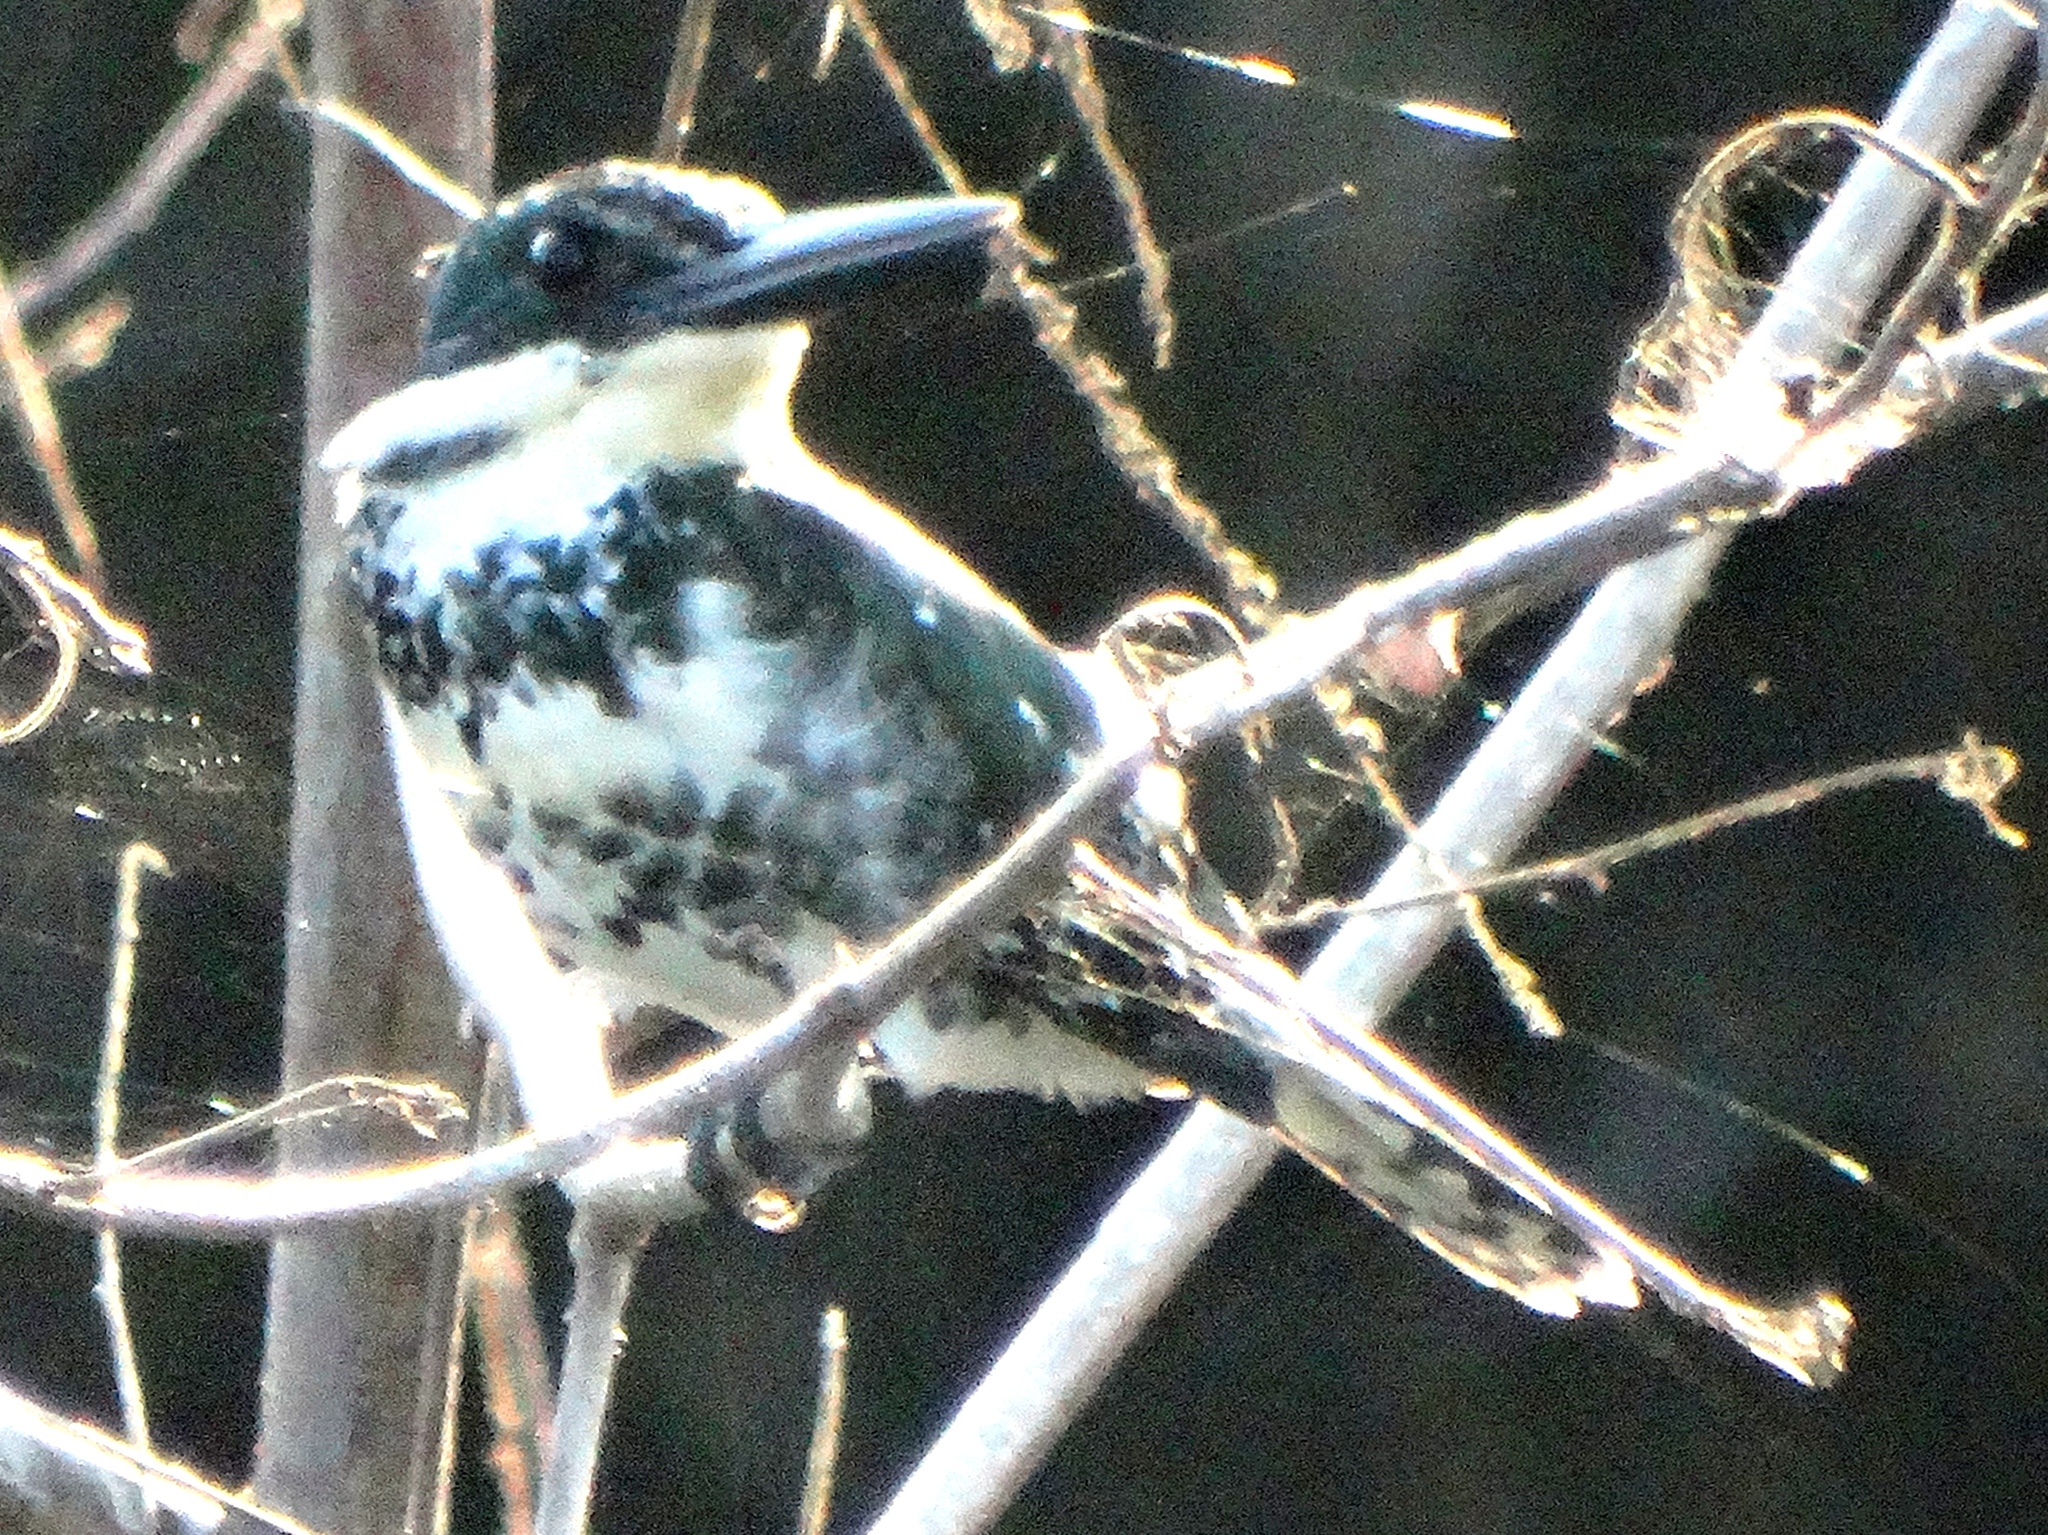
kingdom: Animalia
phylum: Chordata
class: Aves
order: Coraciiformes
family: Alcedinidae
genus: Chloroceryle
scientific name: Chloroceryle americana
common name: Green kingfisher
